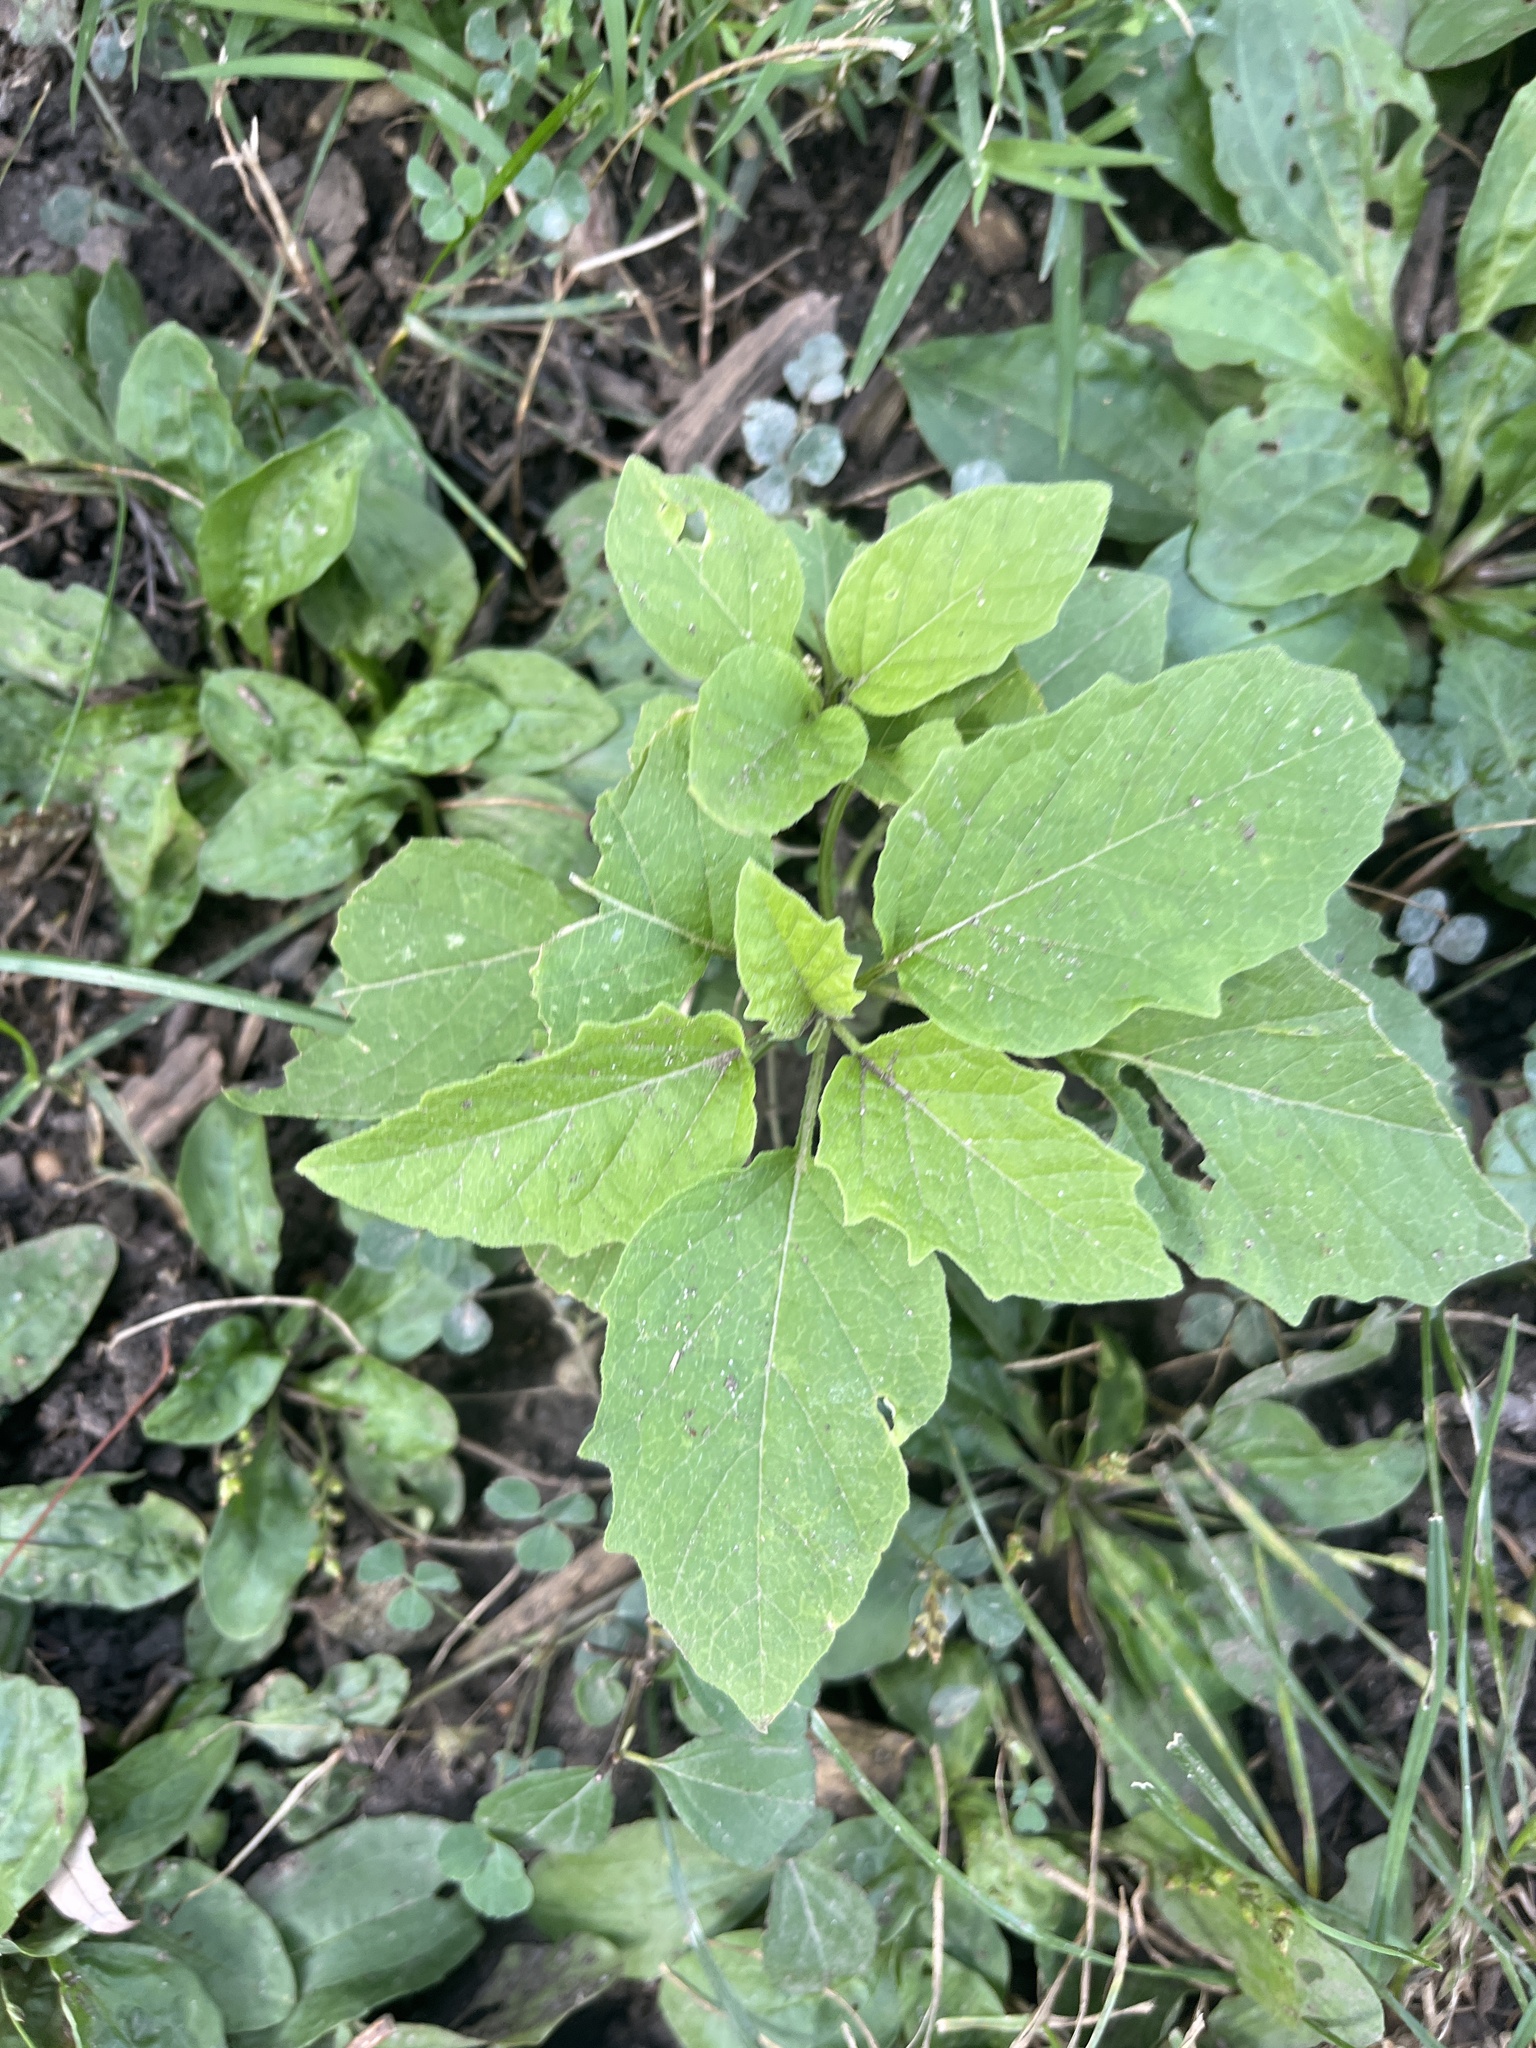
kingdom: Plantae
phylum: Tracheophyta
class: Magnoliopsida
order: Solanales
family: Solanaceae
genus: Physalis
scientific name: Physalis heterophylla
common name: Clammy ground-cherry
